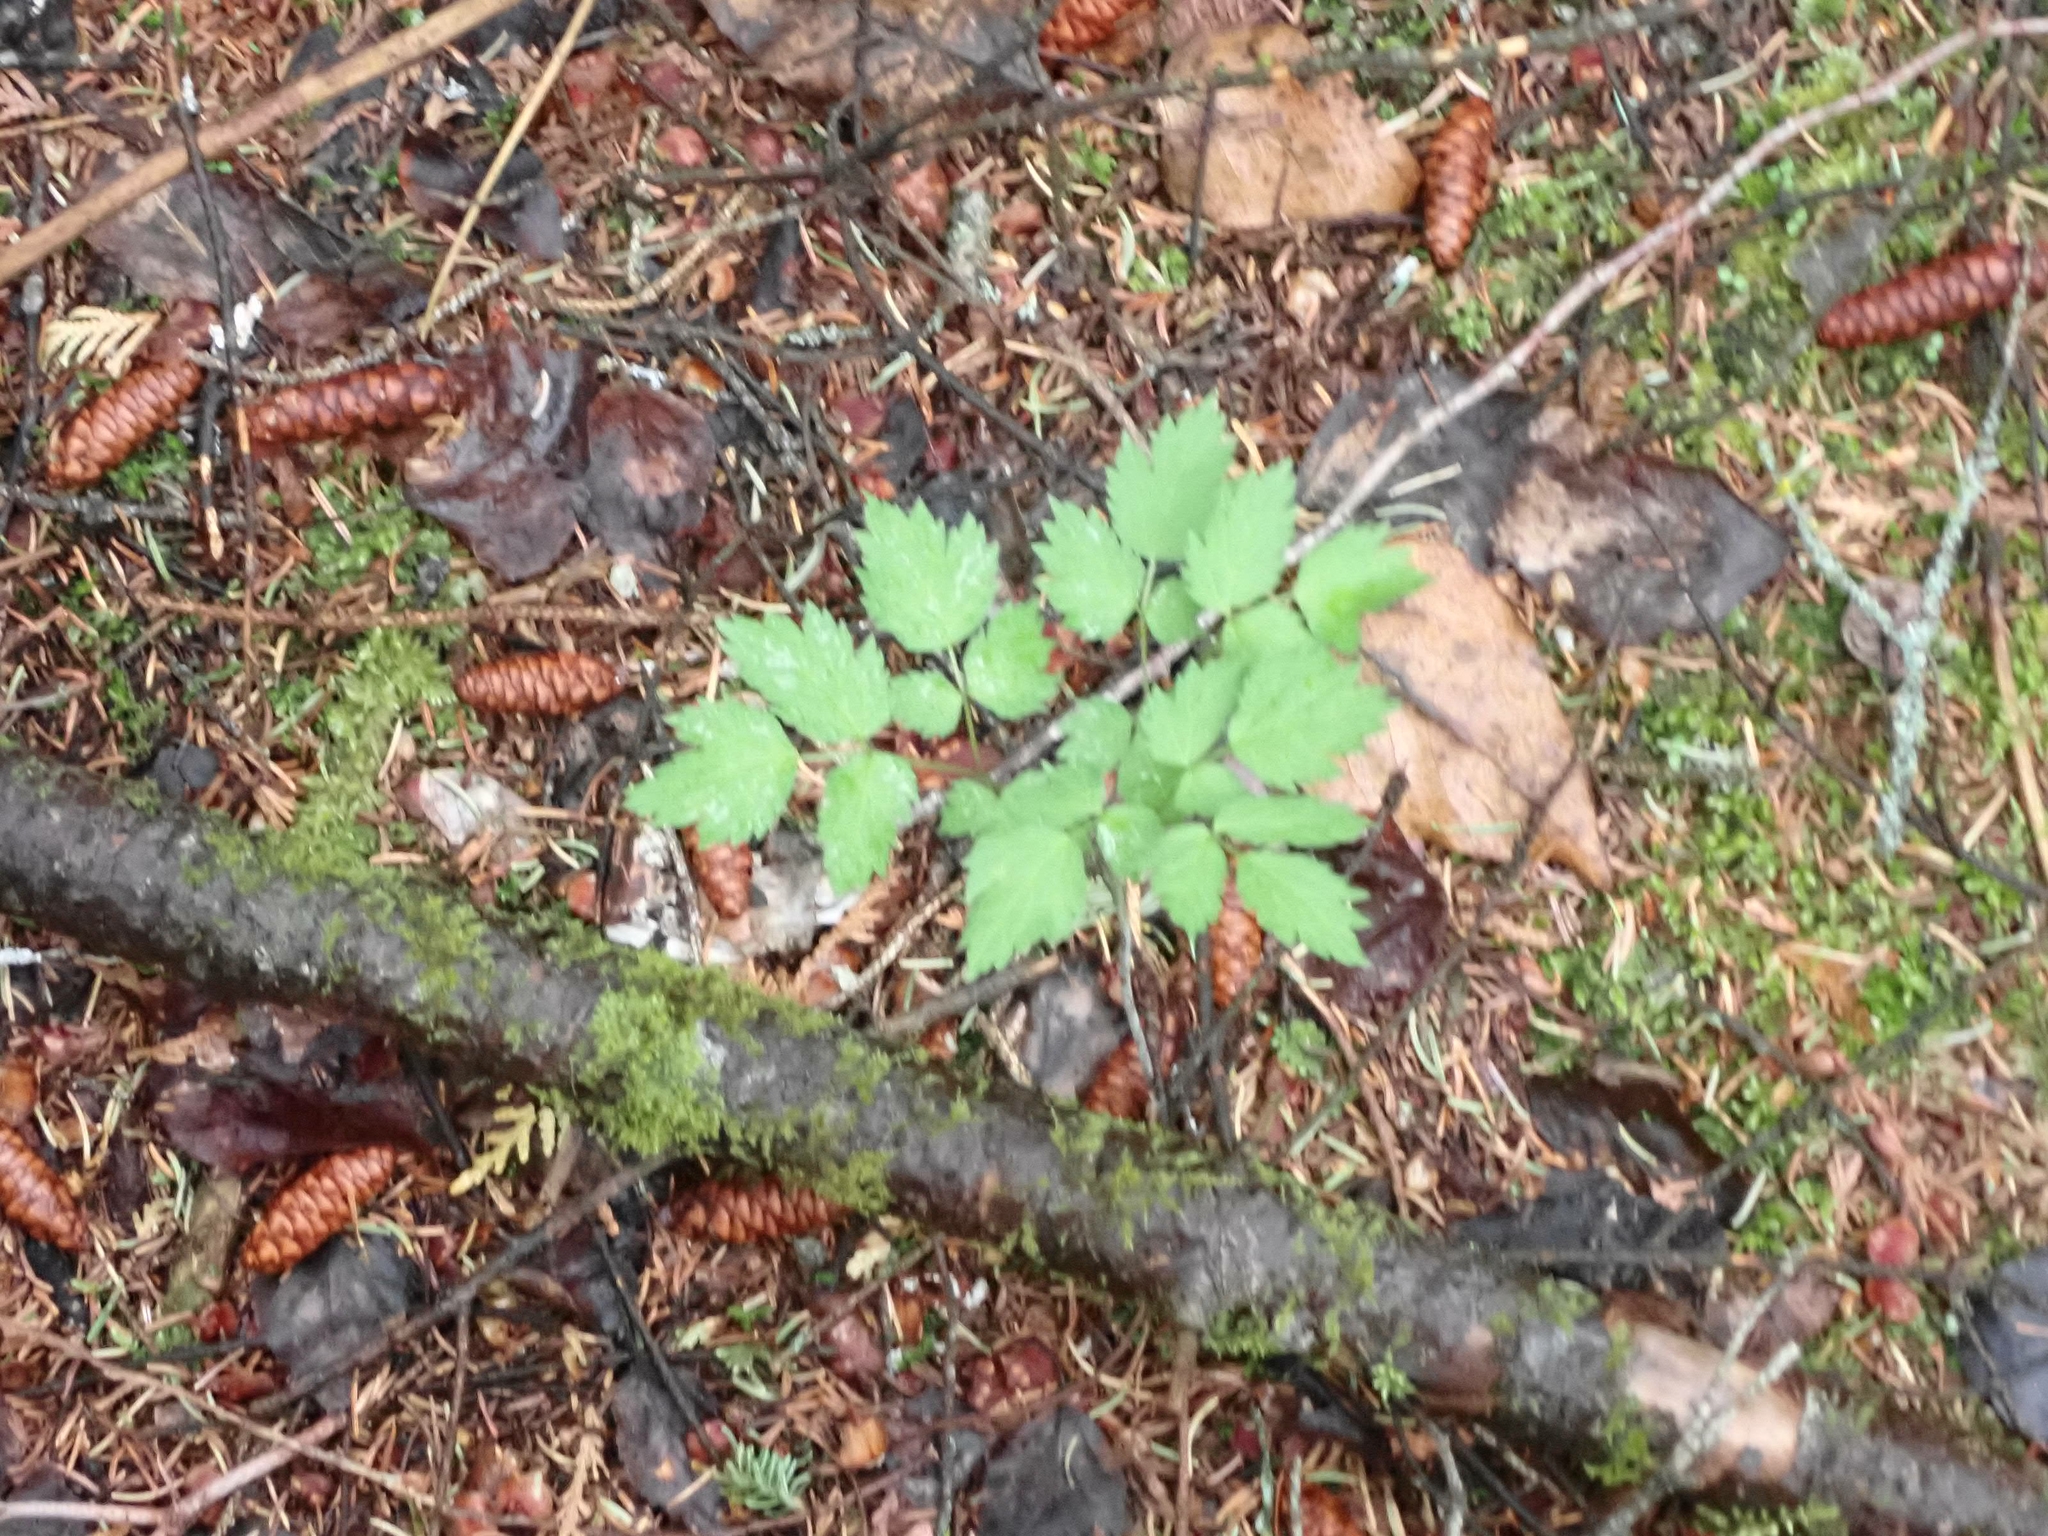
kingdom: Plantae
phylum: Tracheophyta
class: Magnoliopsida
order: Ranunculales
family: Ranunculaceae
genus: Actaea
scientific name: Actaea rubra
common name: Red baneberry
